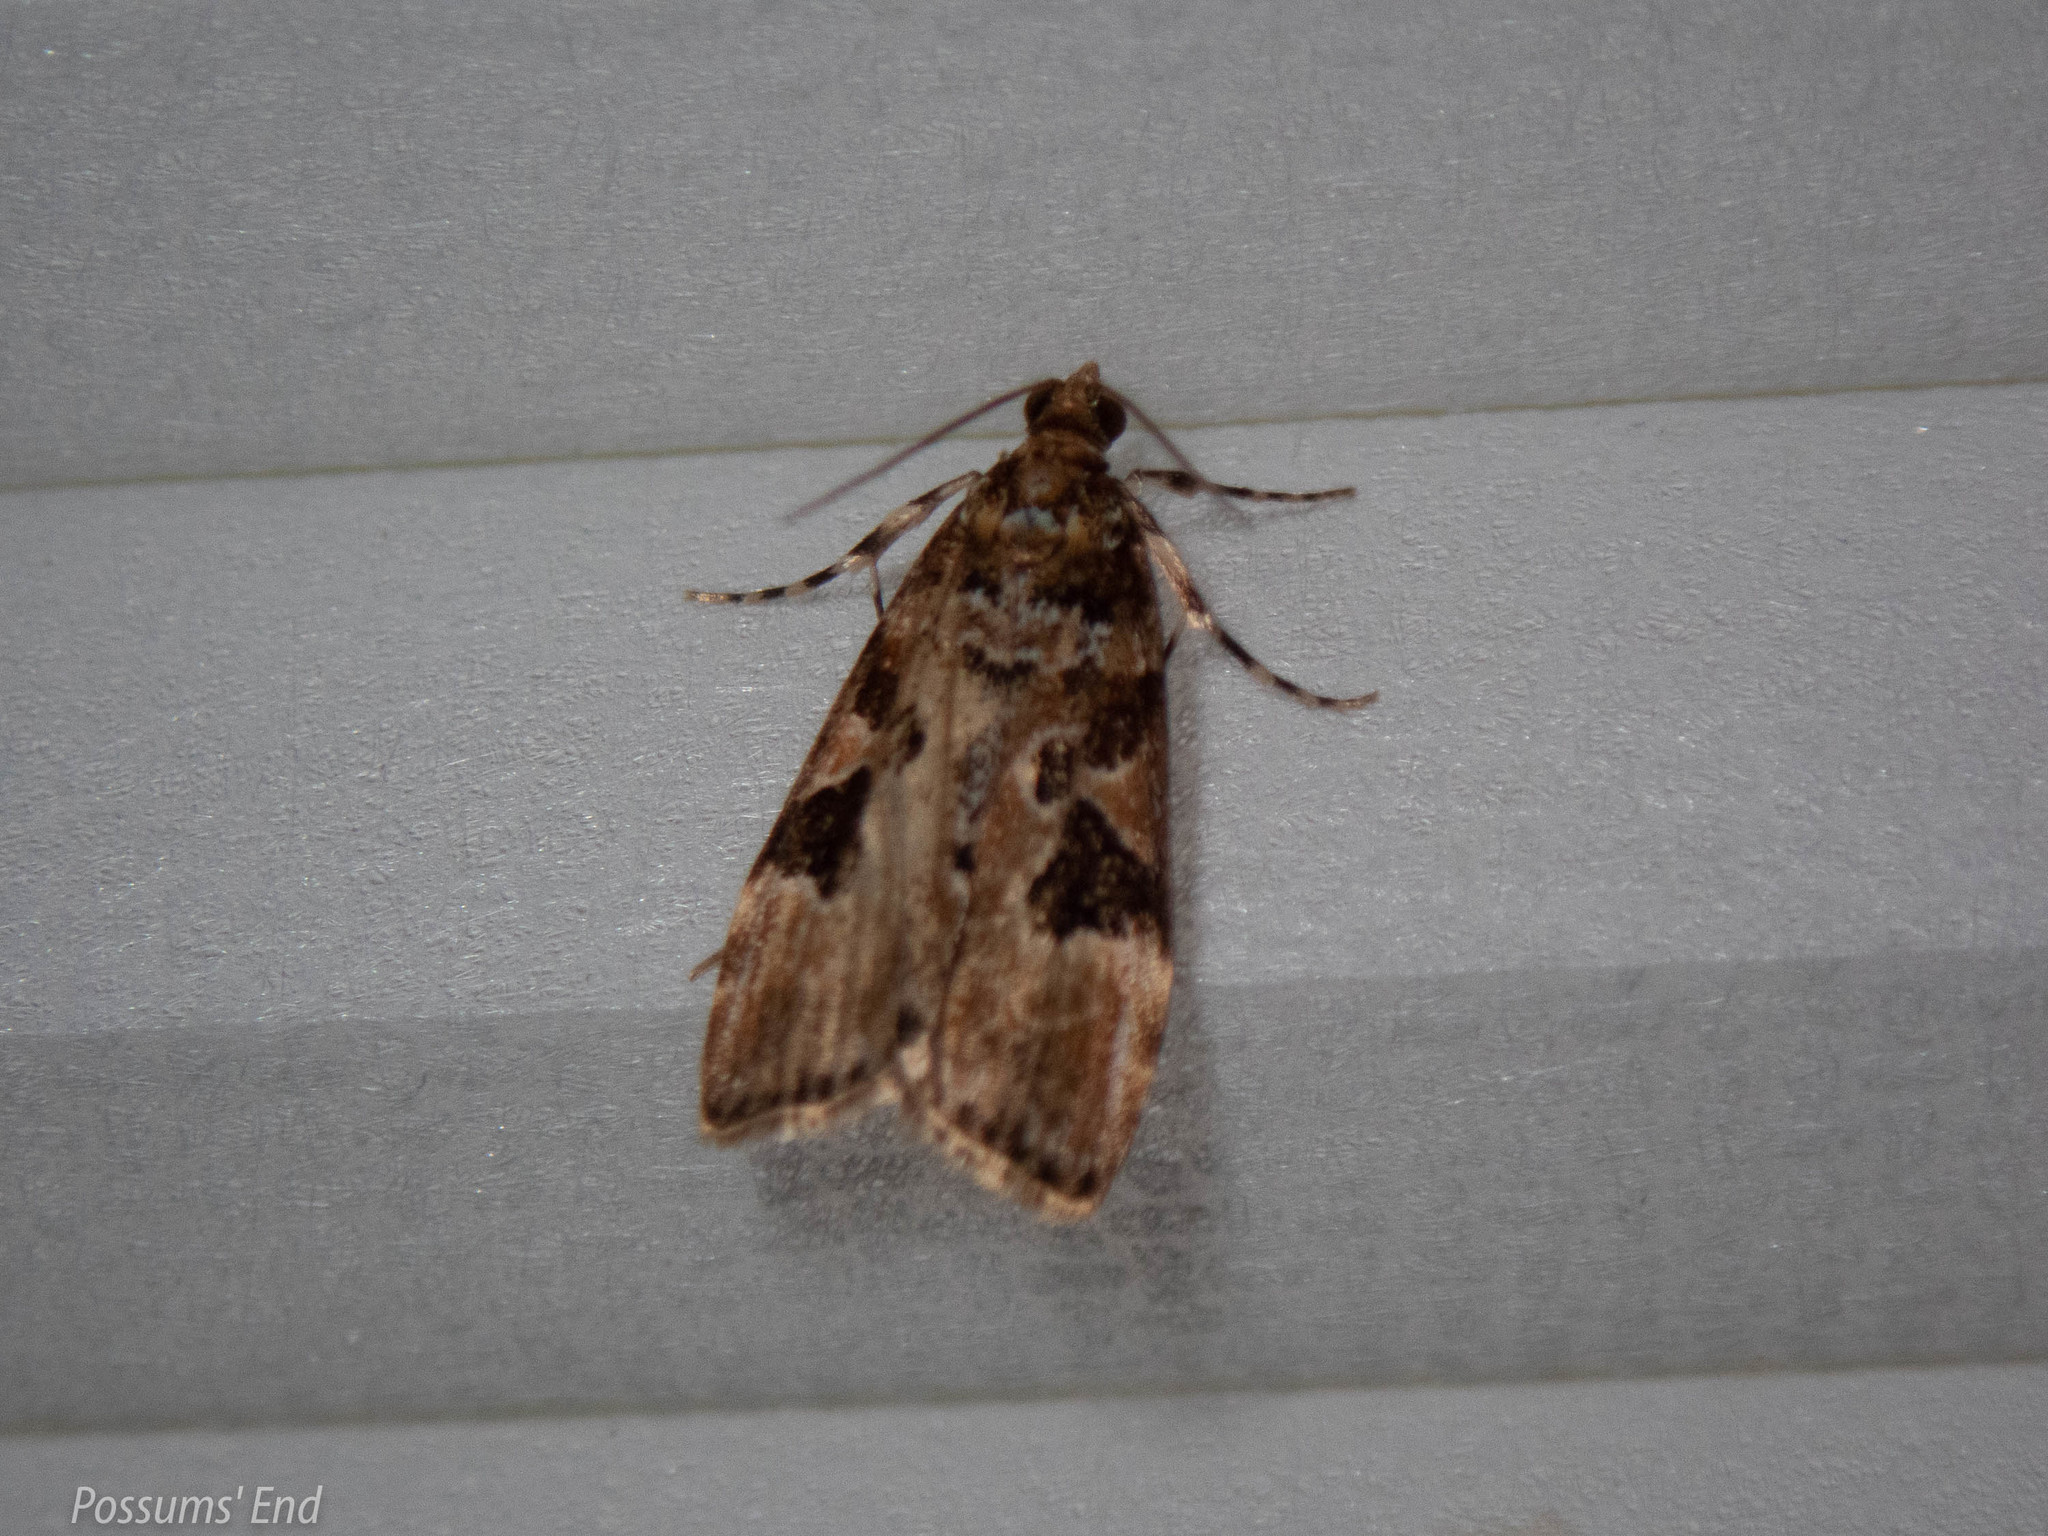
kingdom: Animalia
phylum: Arthropoda
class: Insecta
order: Lepidoptera
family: Crambidae
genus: Scoparia
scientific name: Scoparia ustimacula
